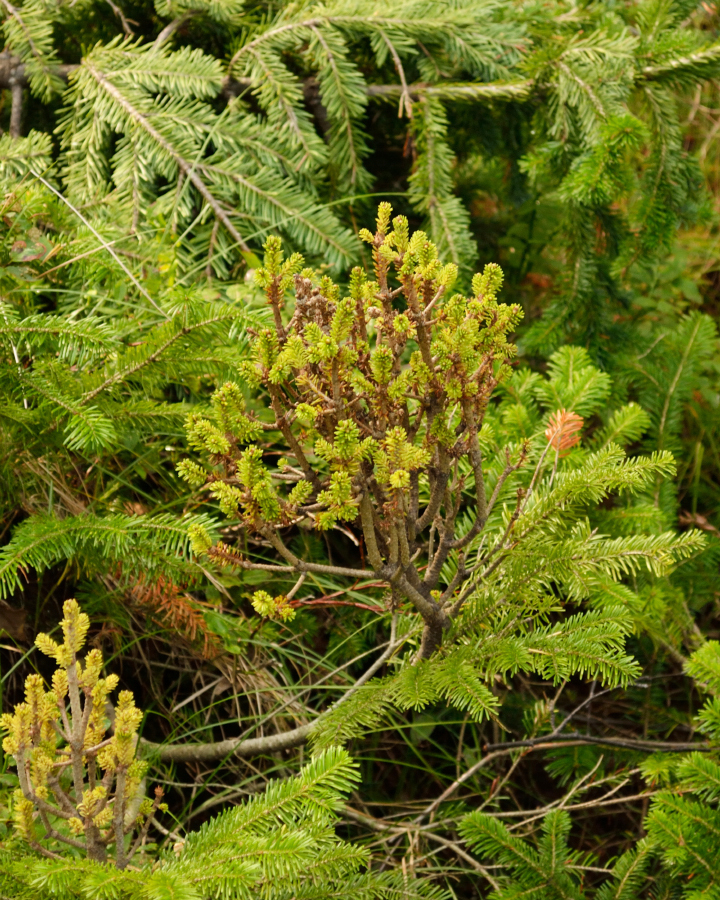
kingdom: Plantae
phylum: Tracheophyta
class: Pinopsida
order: Pinales
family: Pinaceae
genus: Abies
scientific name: Abies sibirica
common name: Siberian fir
